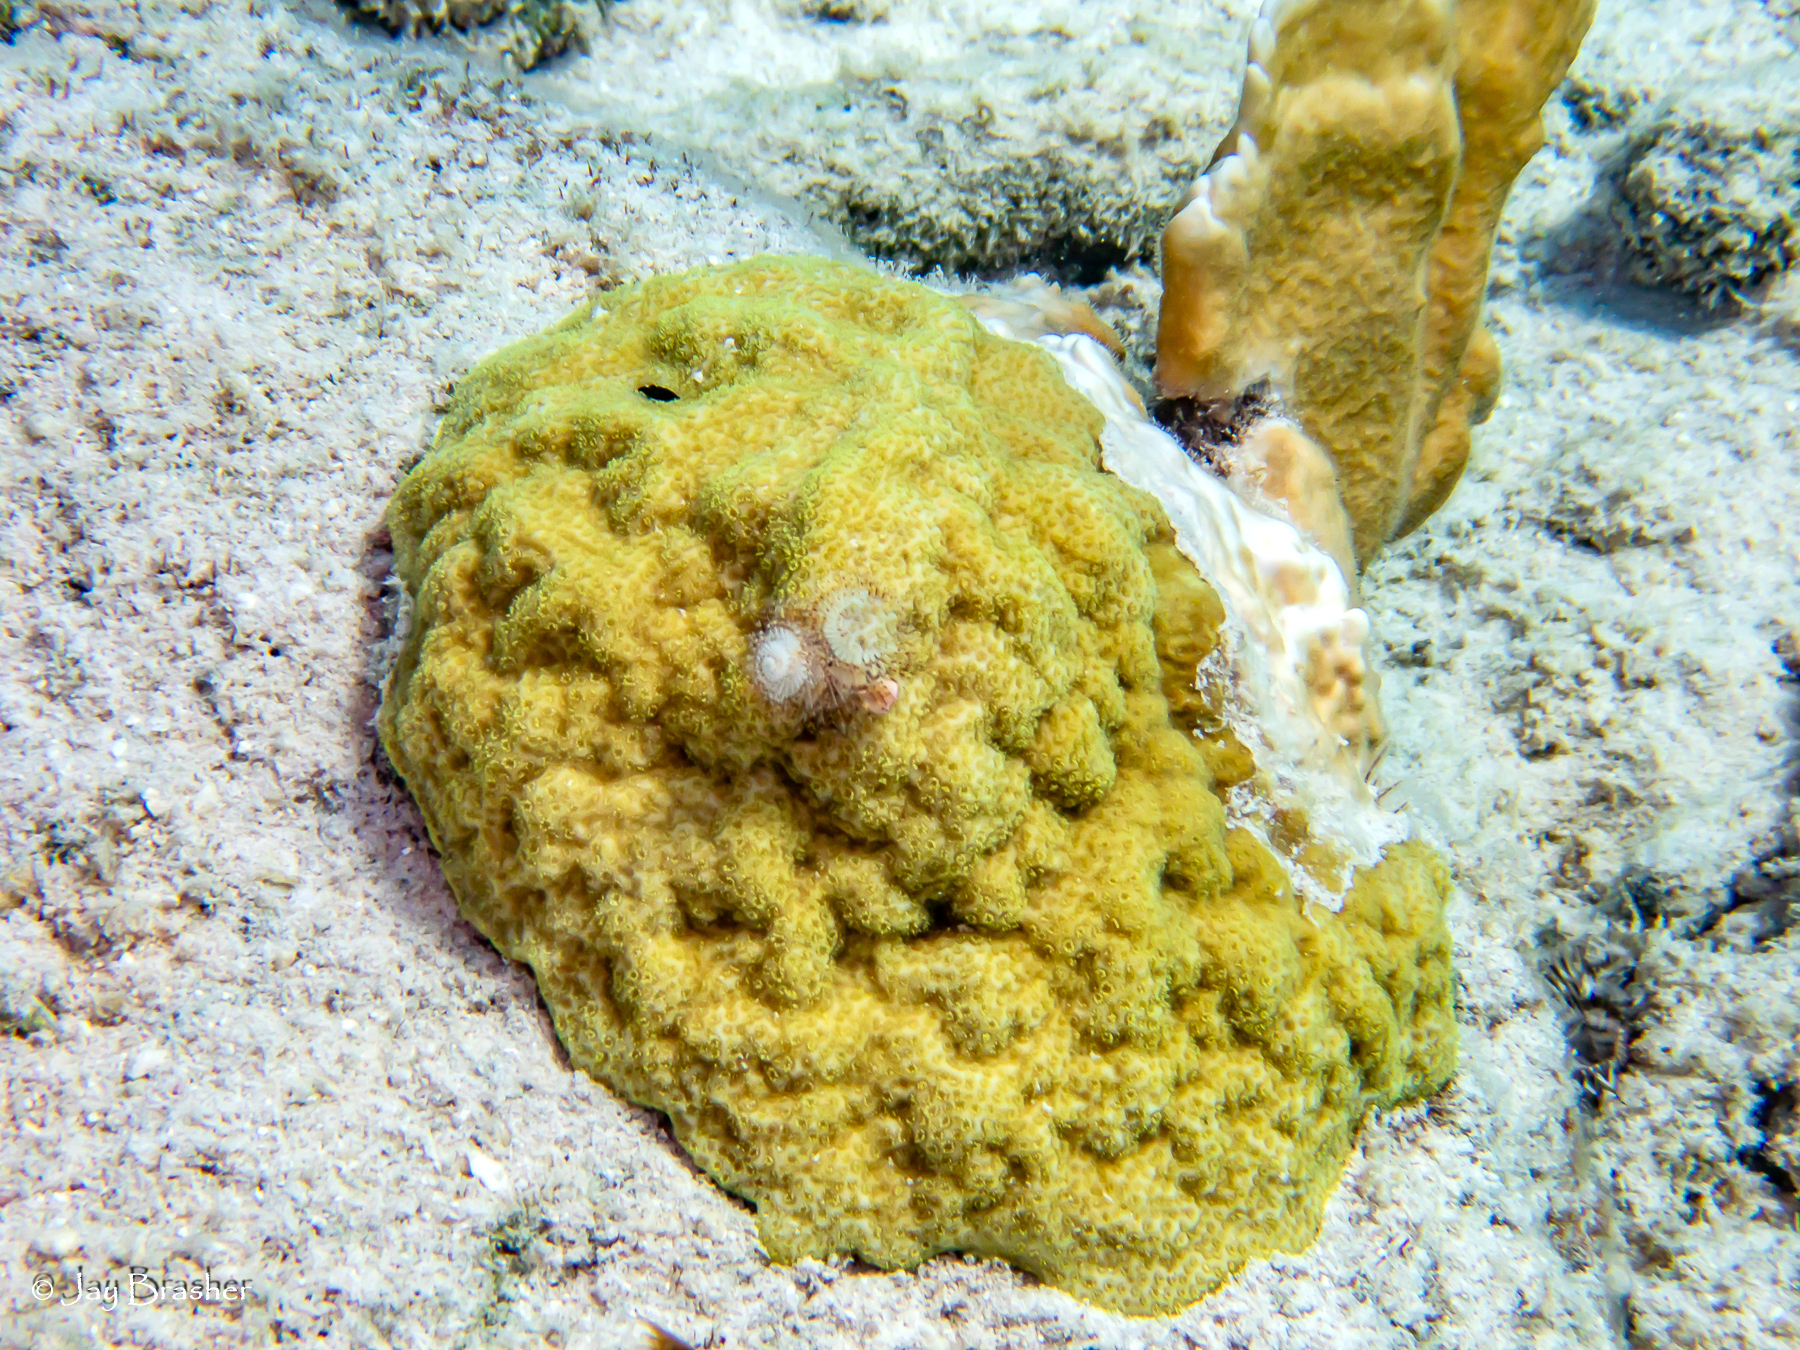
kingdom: Animalia
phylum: Cnidaria
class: Anthozoa
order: Scleractinia
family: Poritidae
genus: Porites
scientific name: Porites astreoides
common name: Mustard hill coral
